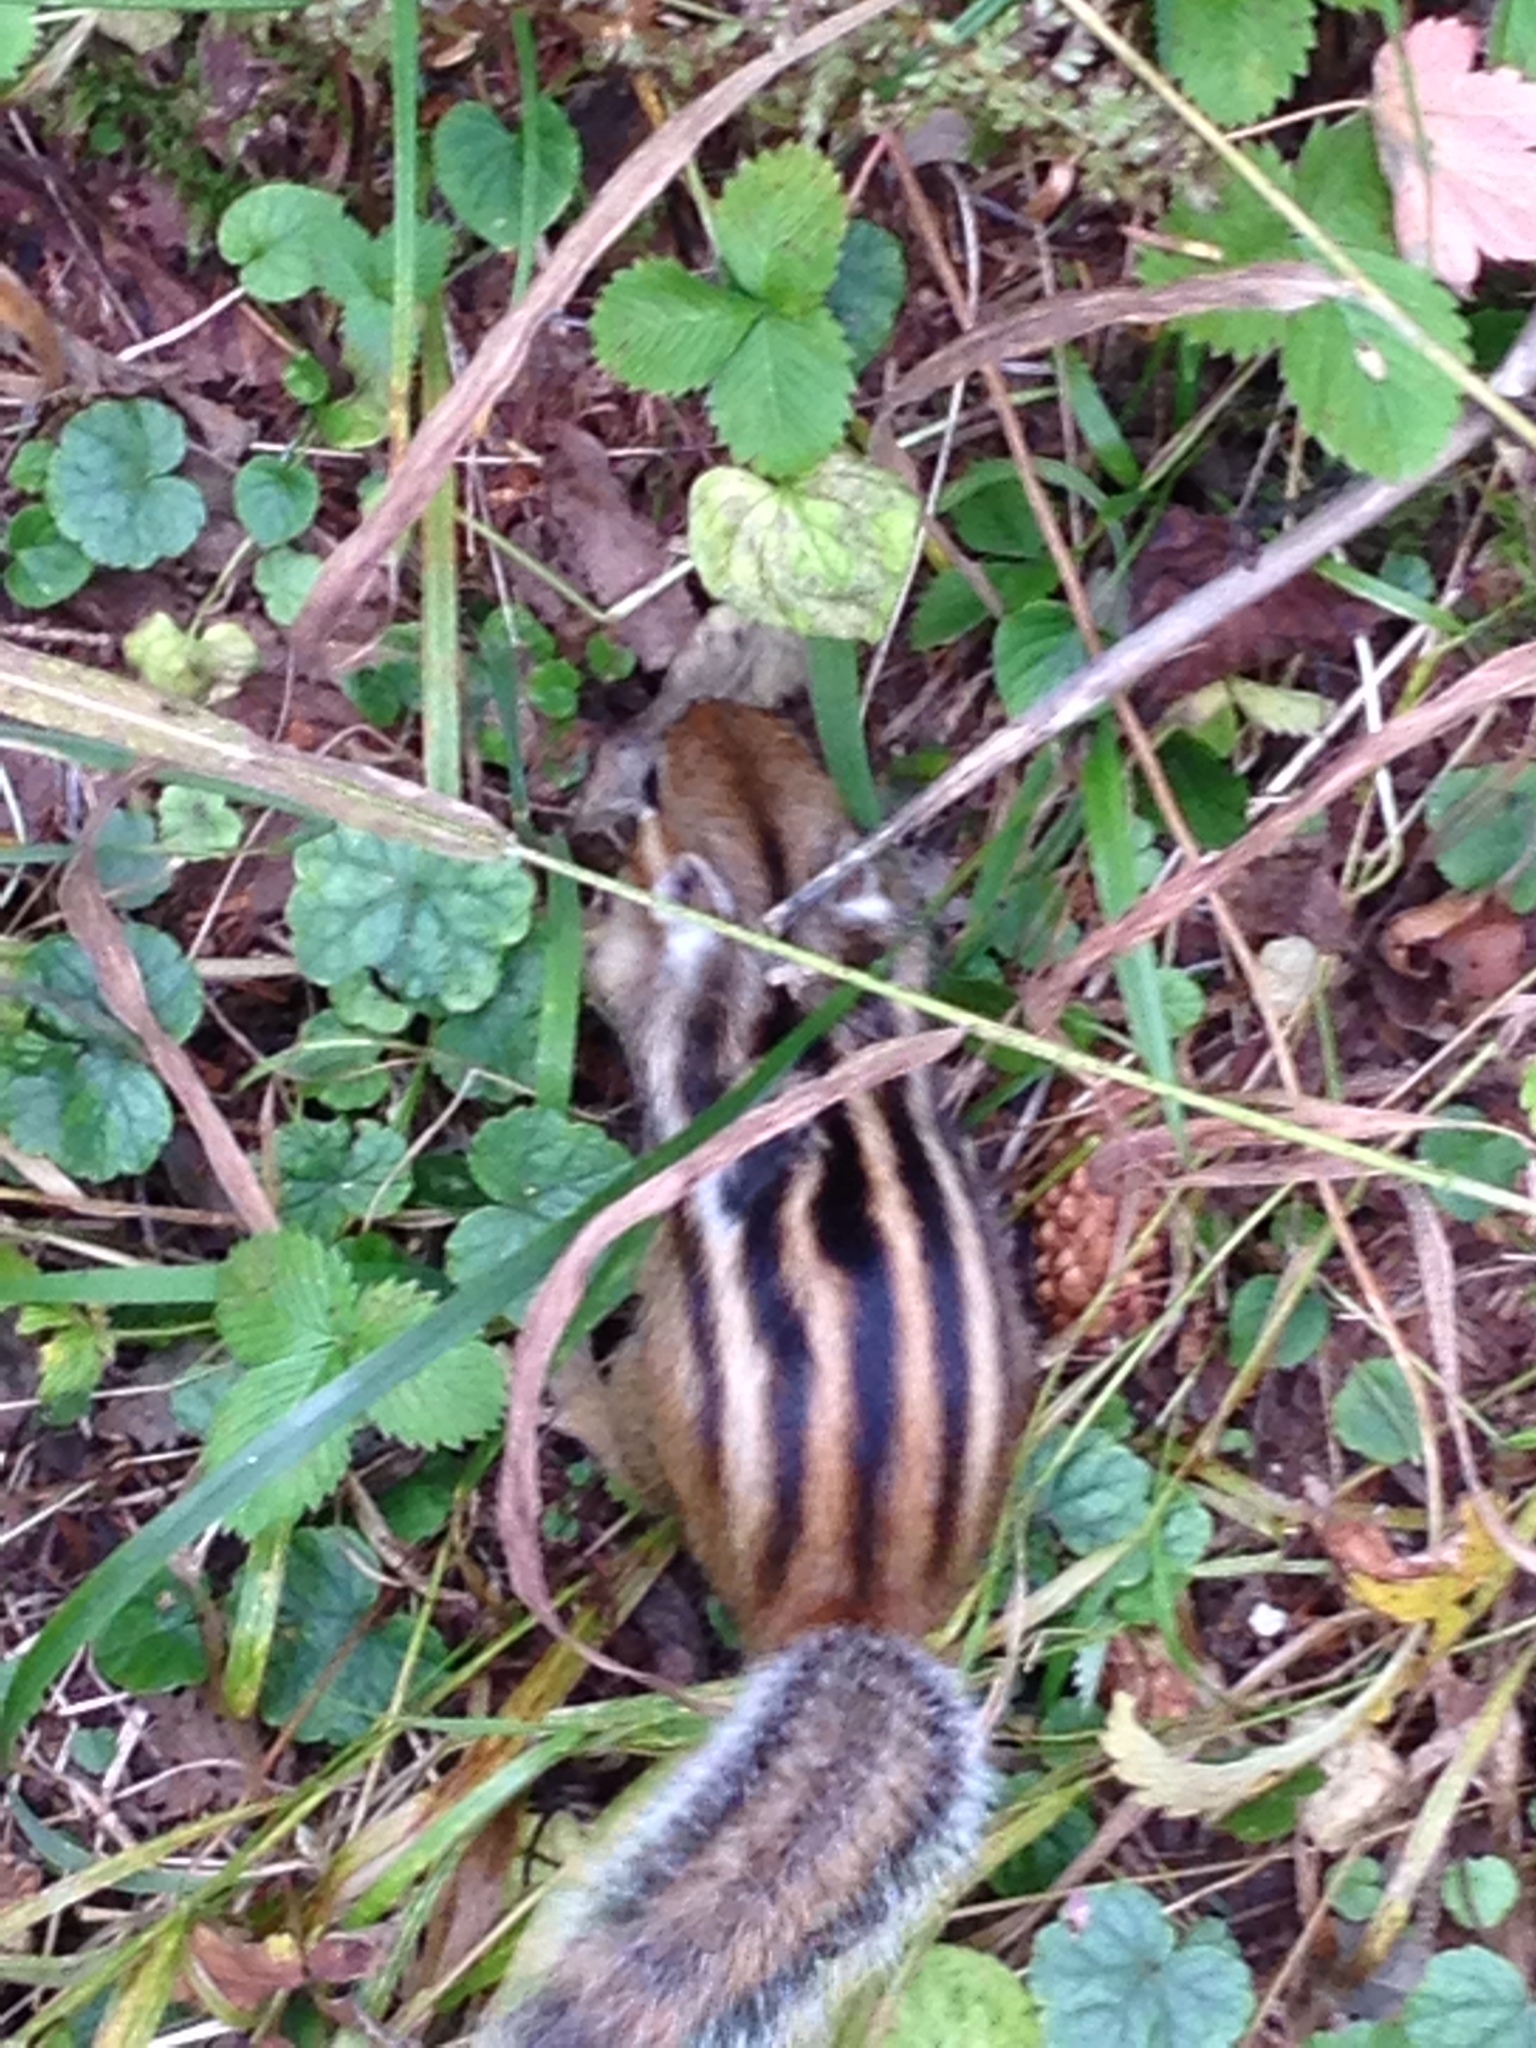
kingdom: Animalia
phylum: Chordata
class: Mammalia
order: Rodentia
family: Sciuridae
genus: Tamias
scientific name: Tamias sibiricus
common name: Siberian chipmunk
